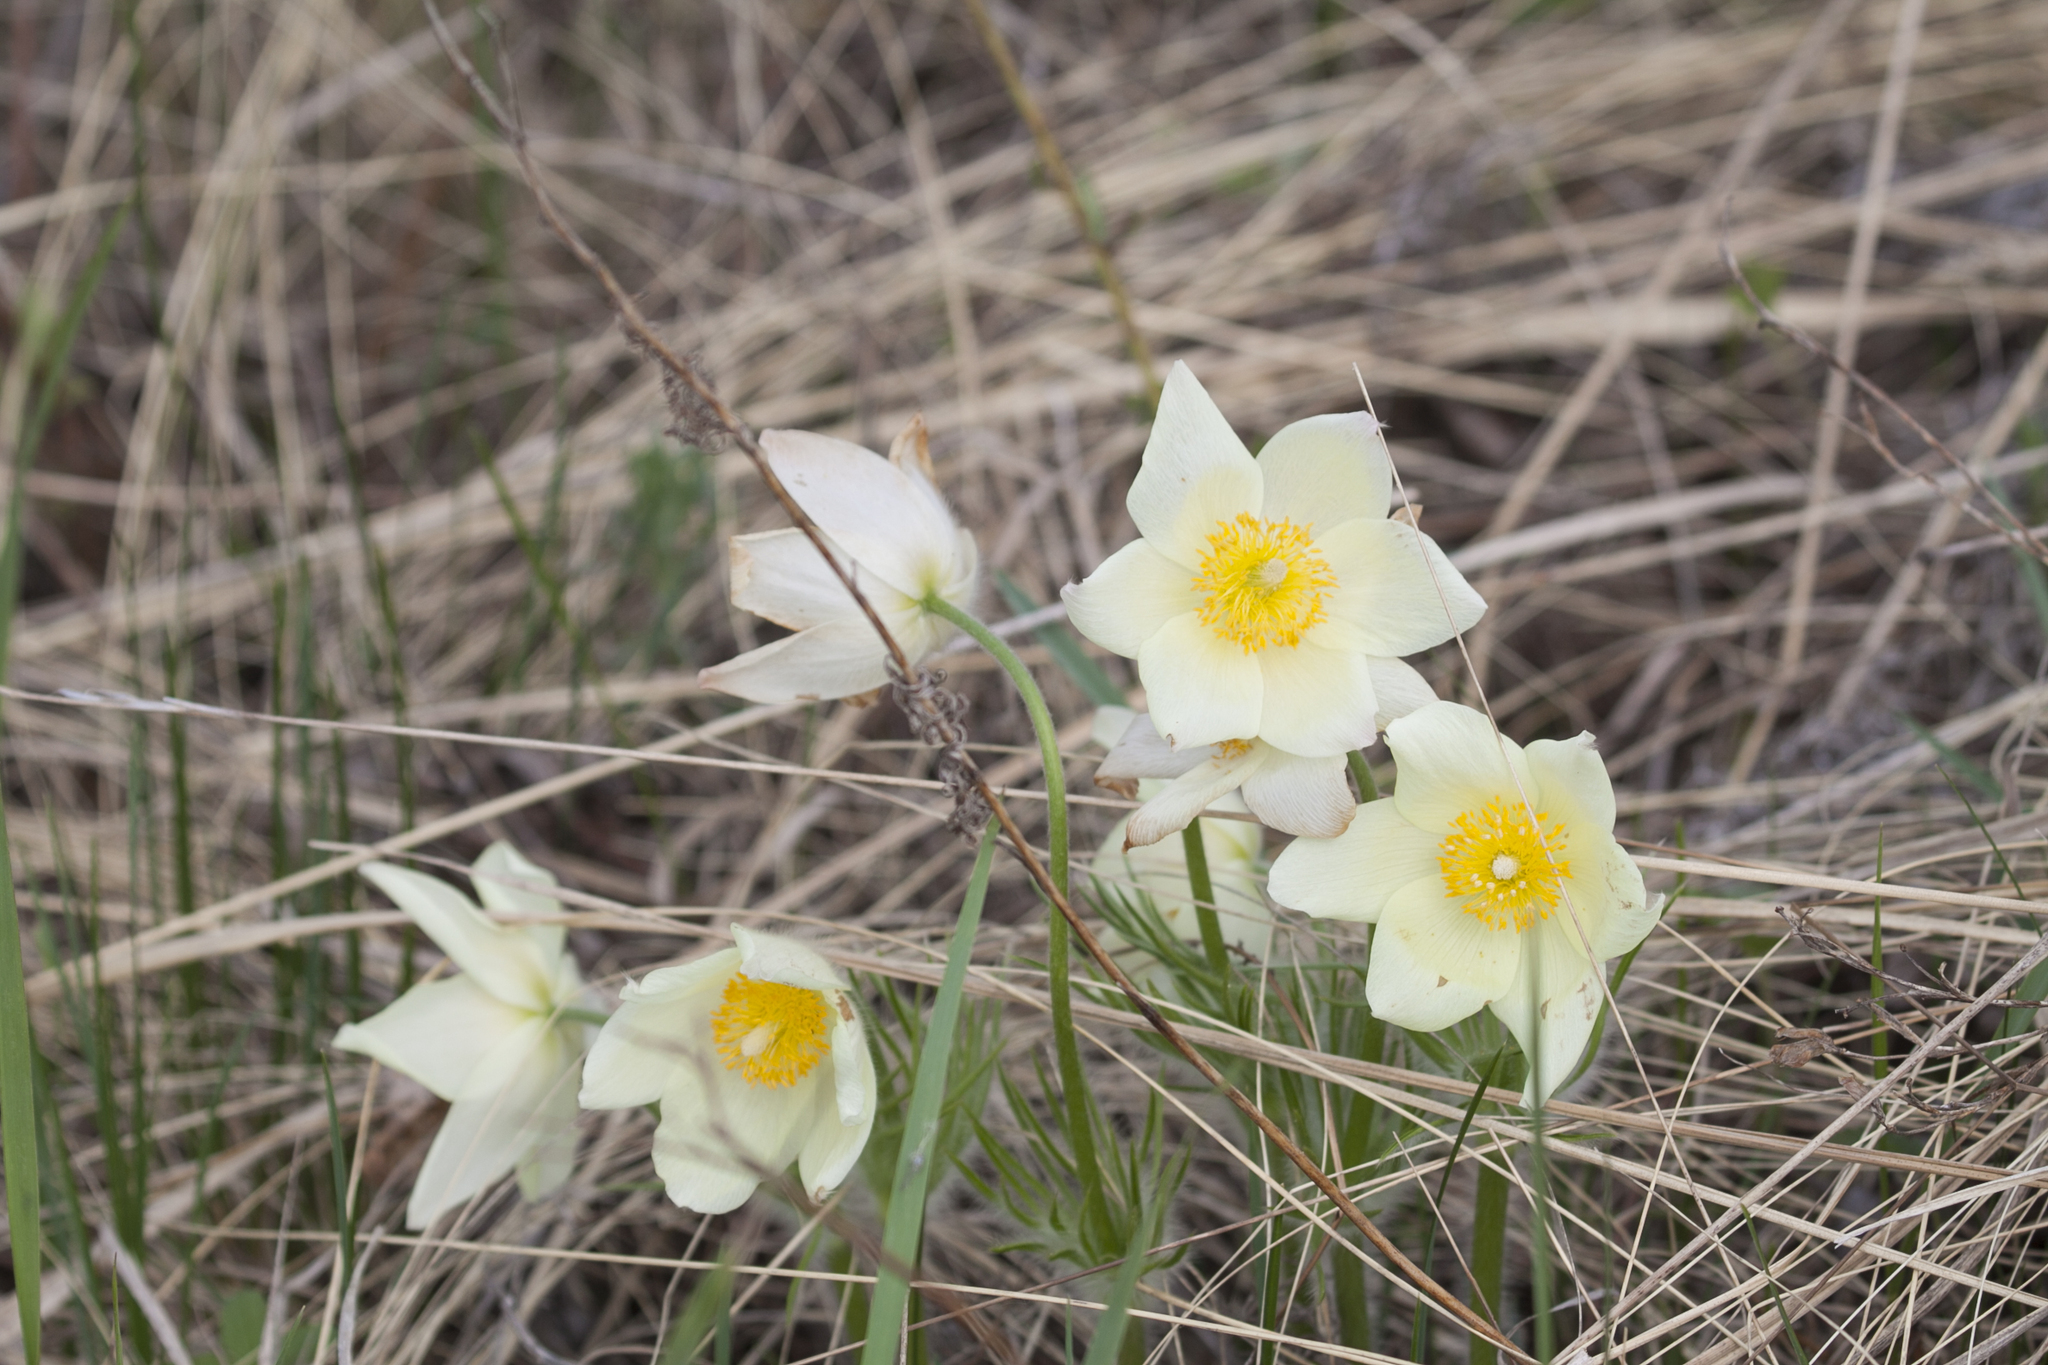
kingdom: Plantae
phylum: Tracheophyta
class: Magnoliopsida
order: Ranunculales
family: Ranunculaceae
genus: Pulsatilla
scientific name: Pulsatilla patens
